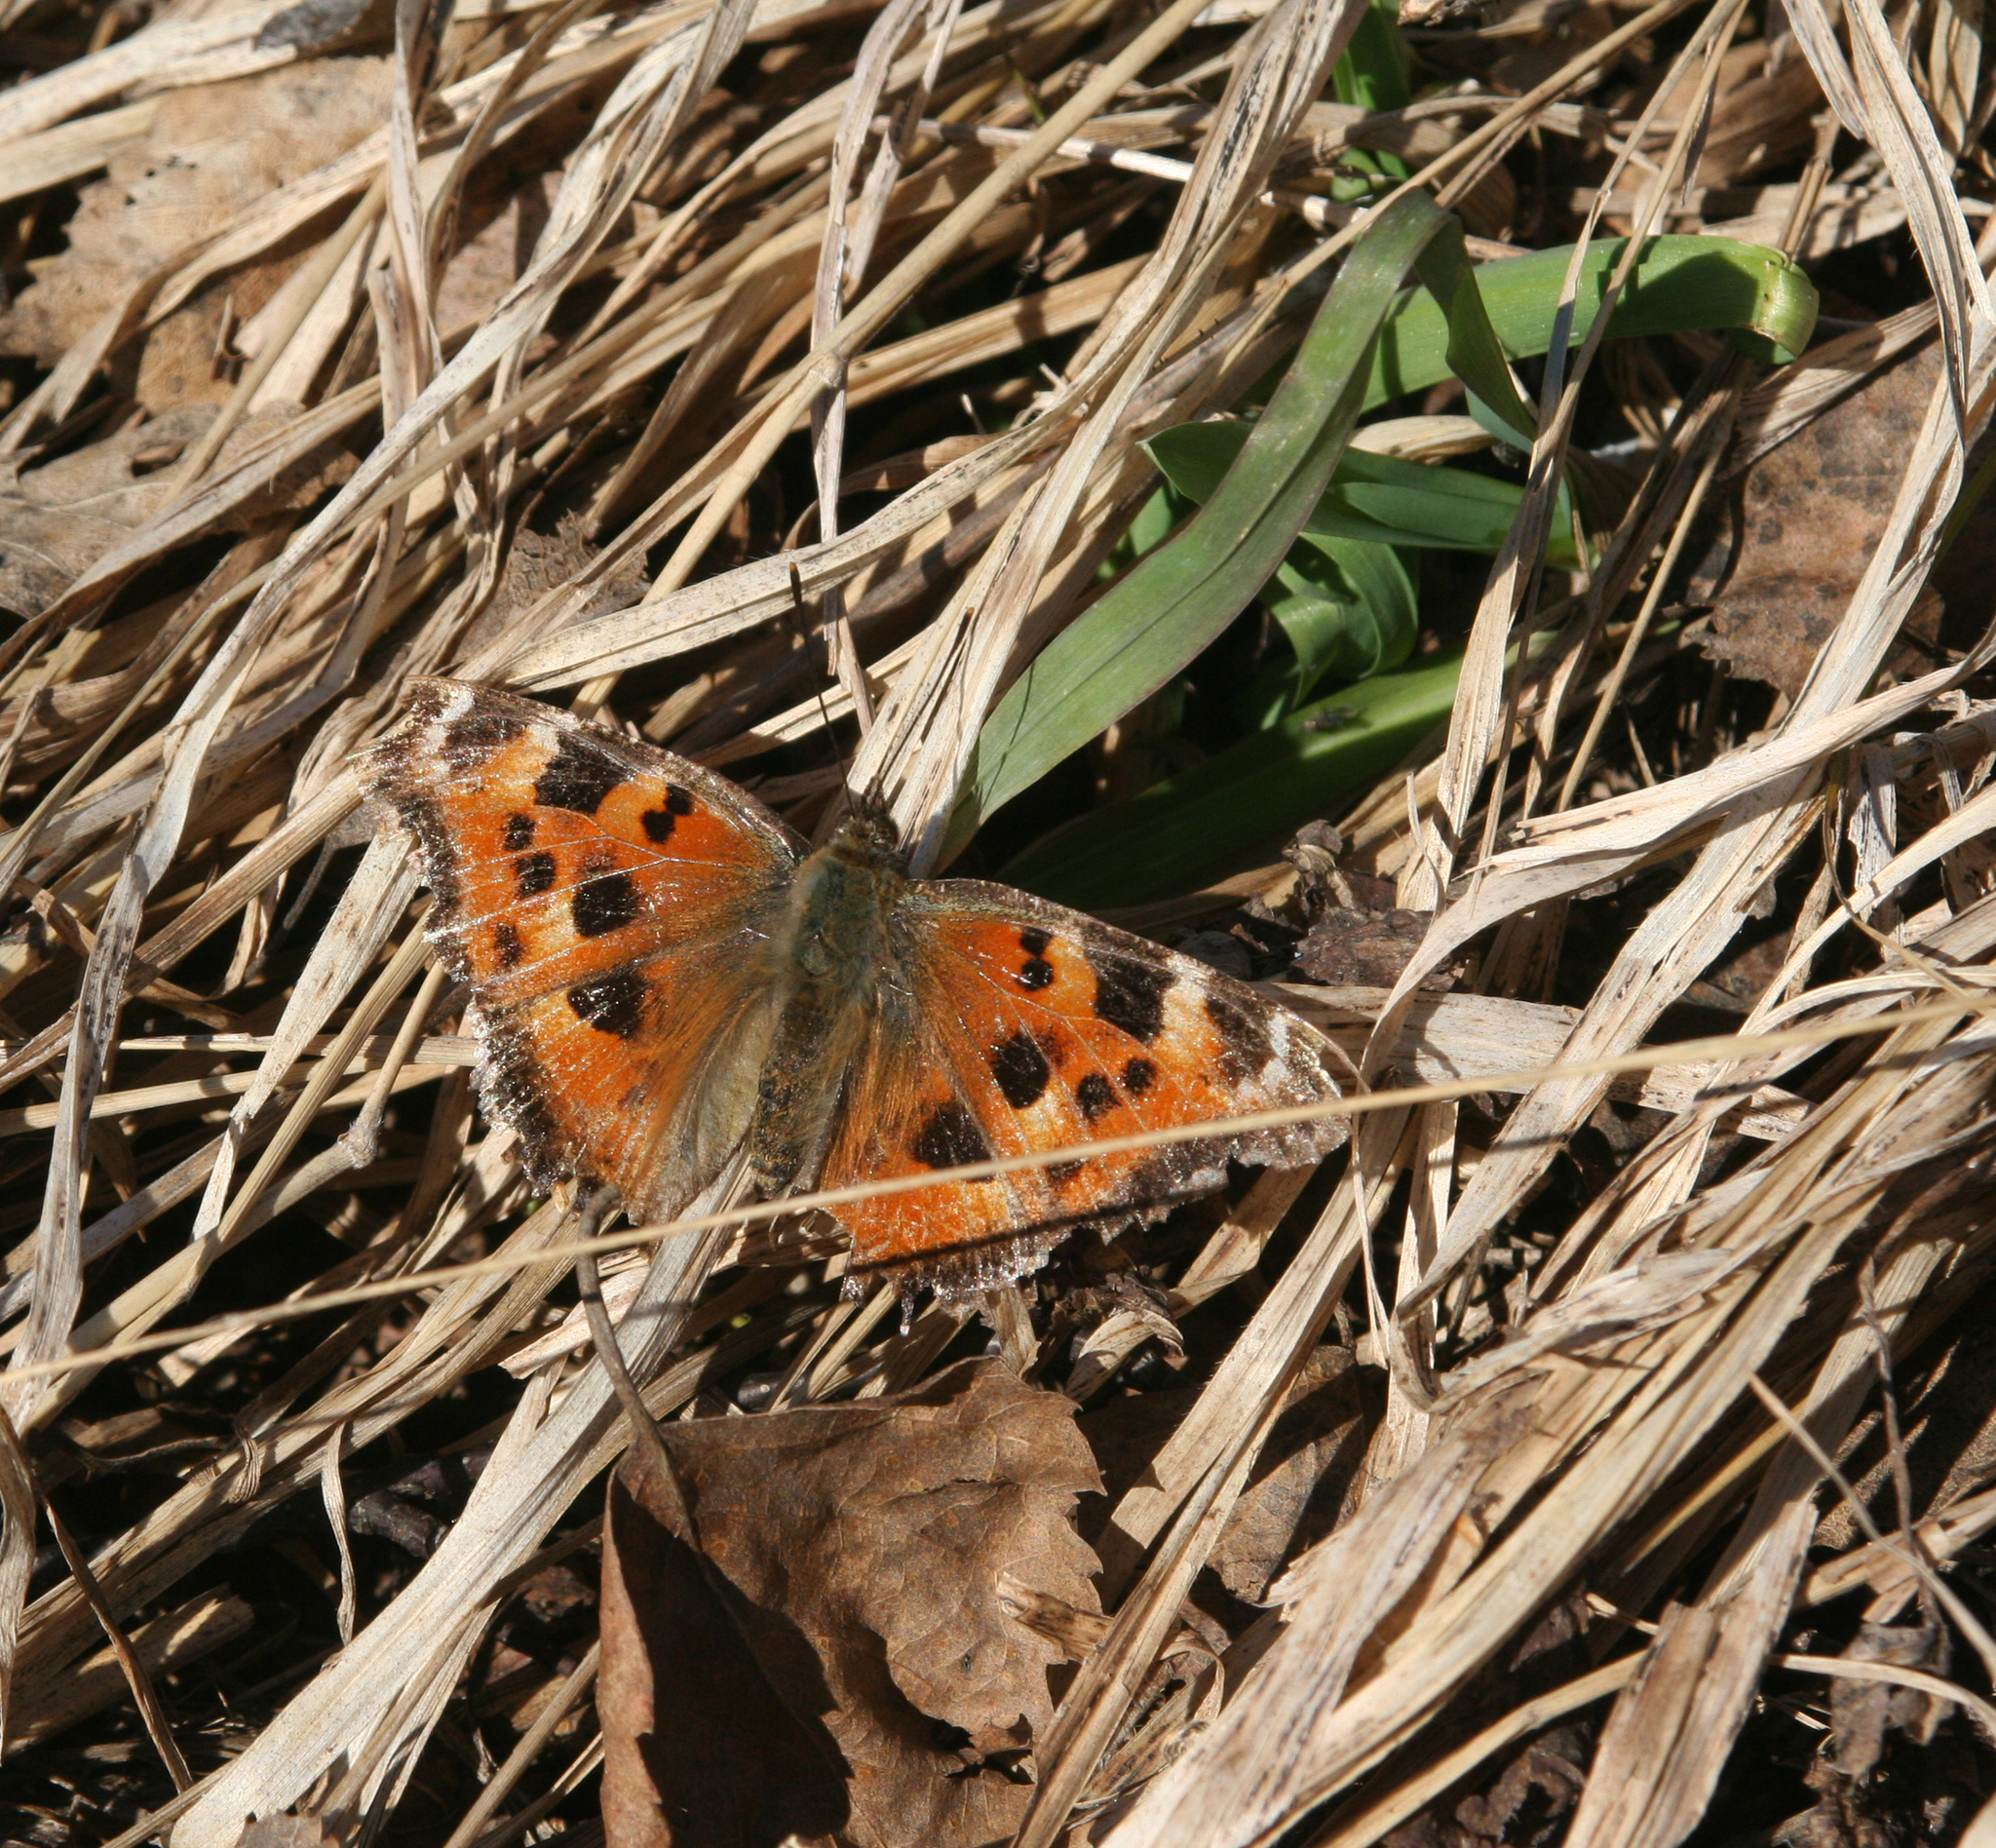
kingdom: Animalia
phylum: Arthropoda
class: Insecta
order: Lepidoptera
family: Nymphalidae
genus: Nymphalis
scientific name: Nymphalis xanthomelas
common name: Scarce tortoiseshell
